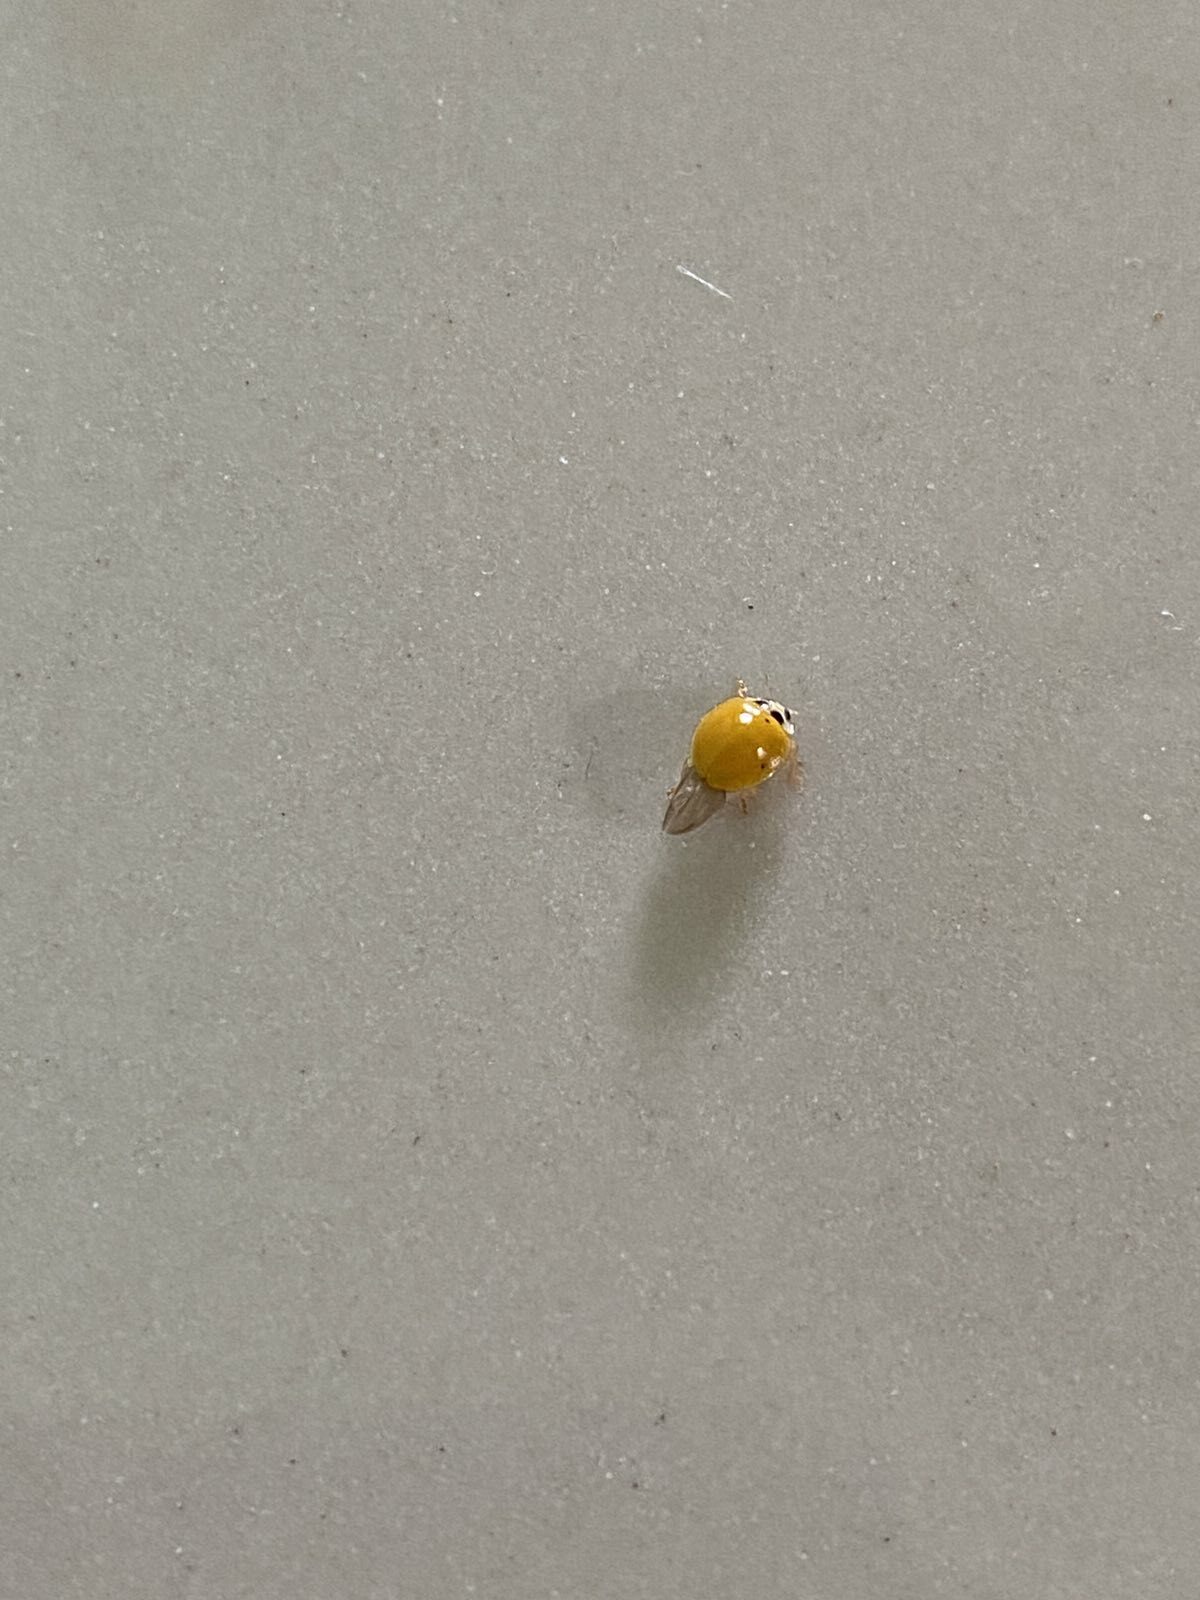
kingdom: Animalia
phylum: Arthropoda
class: Insecta
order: Coleoptera
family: Coccinellidae
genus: Illeis
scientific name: Illeis koebelei
